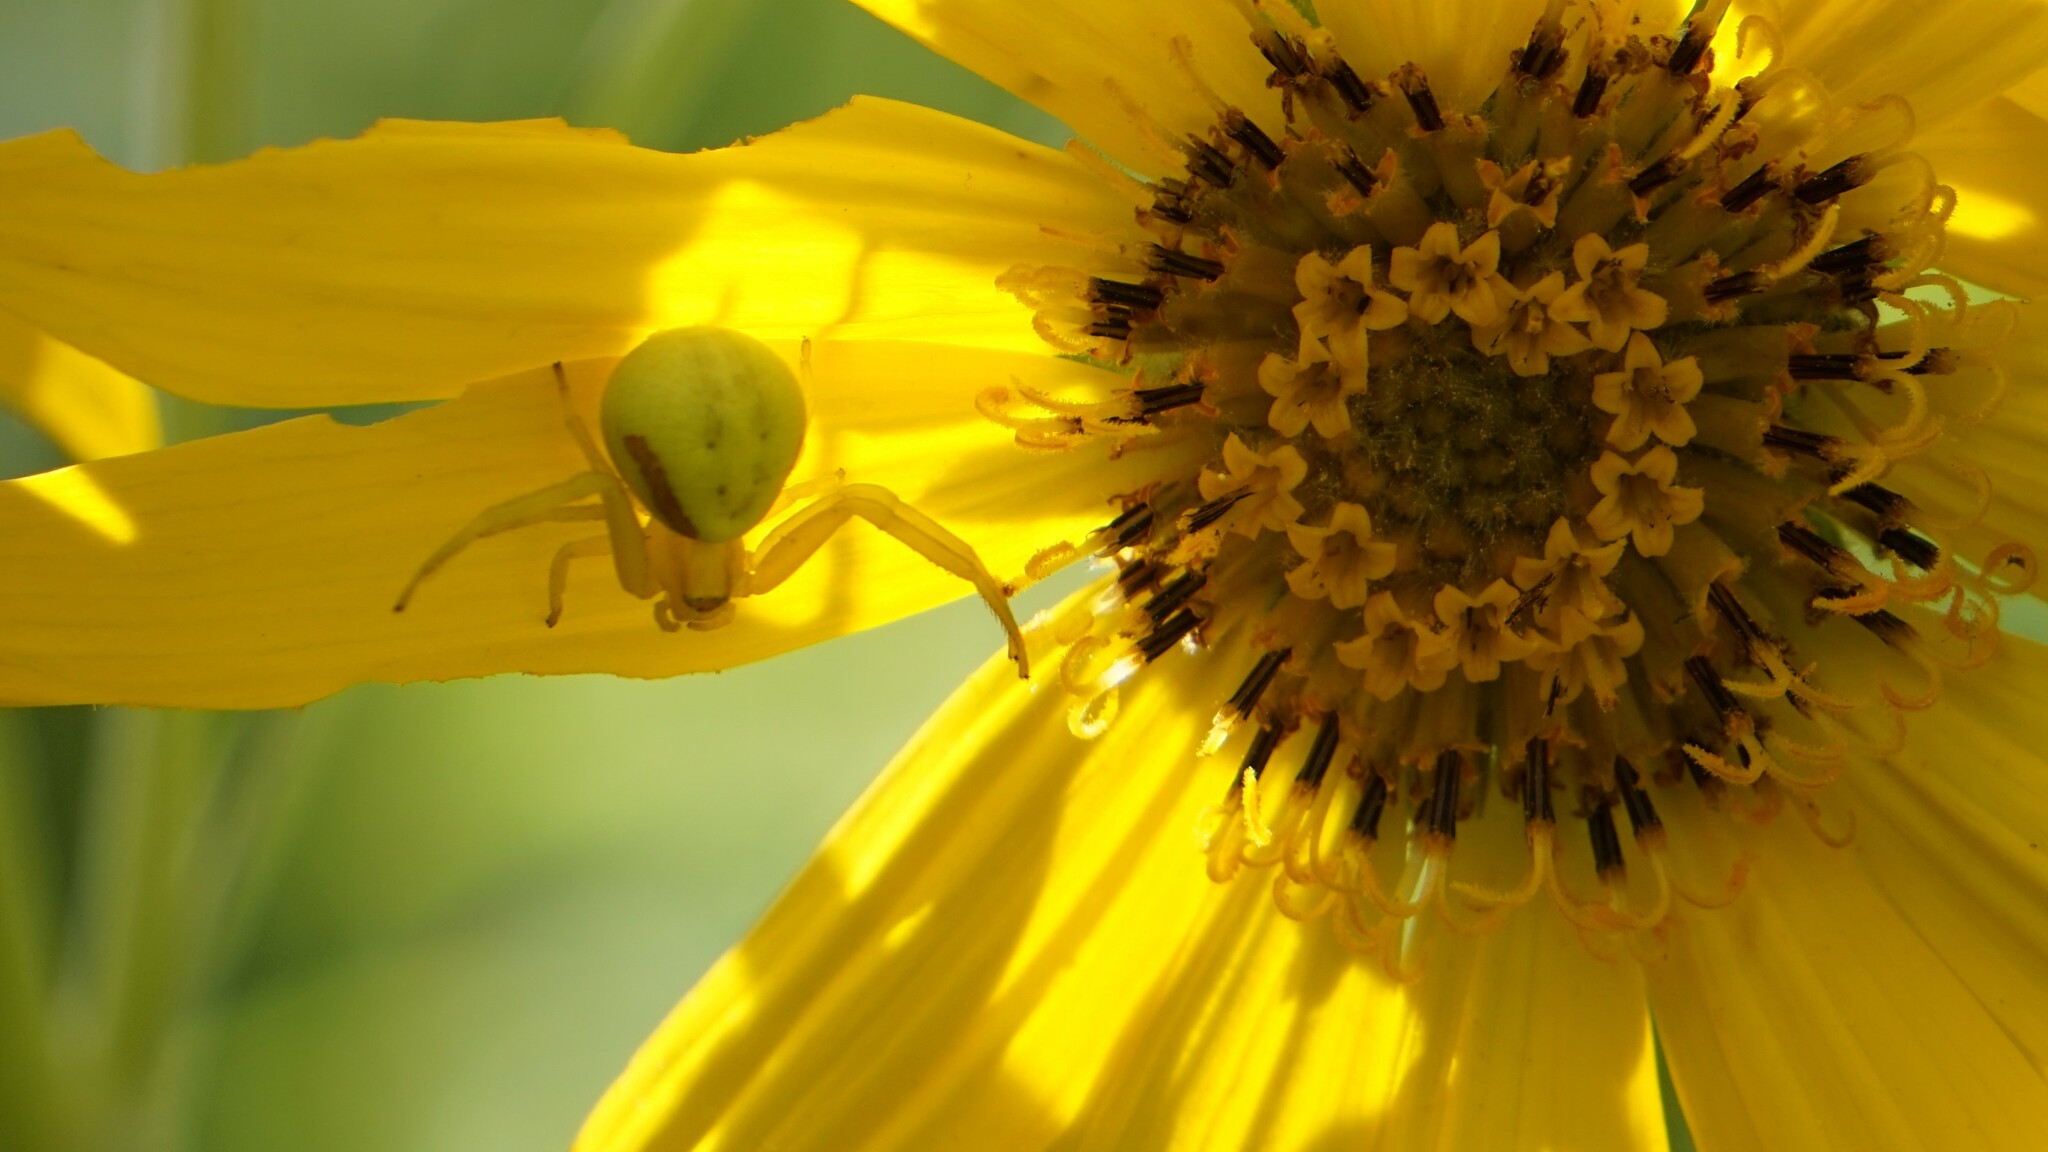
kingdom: Animalia
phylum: Arthropoda
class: Arachnida
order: Araneae
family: Thomisidae
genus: Misumena
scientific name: Misumena vatia
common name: Goldenrod crab spider
